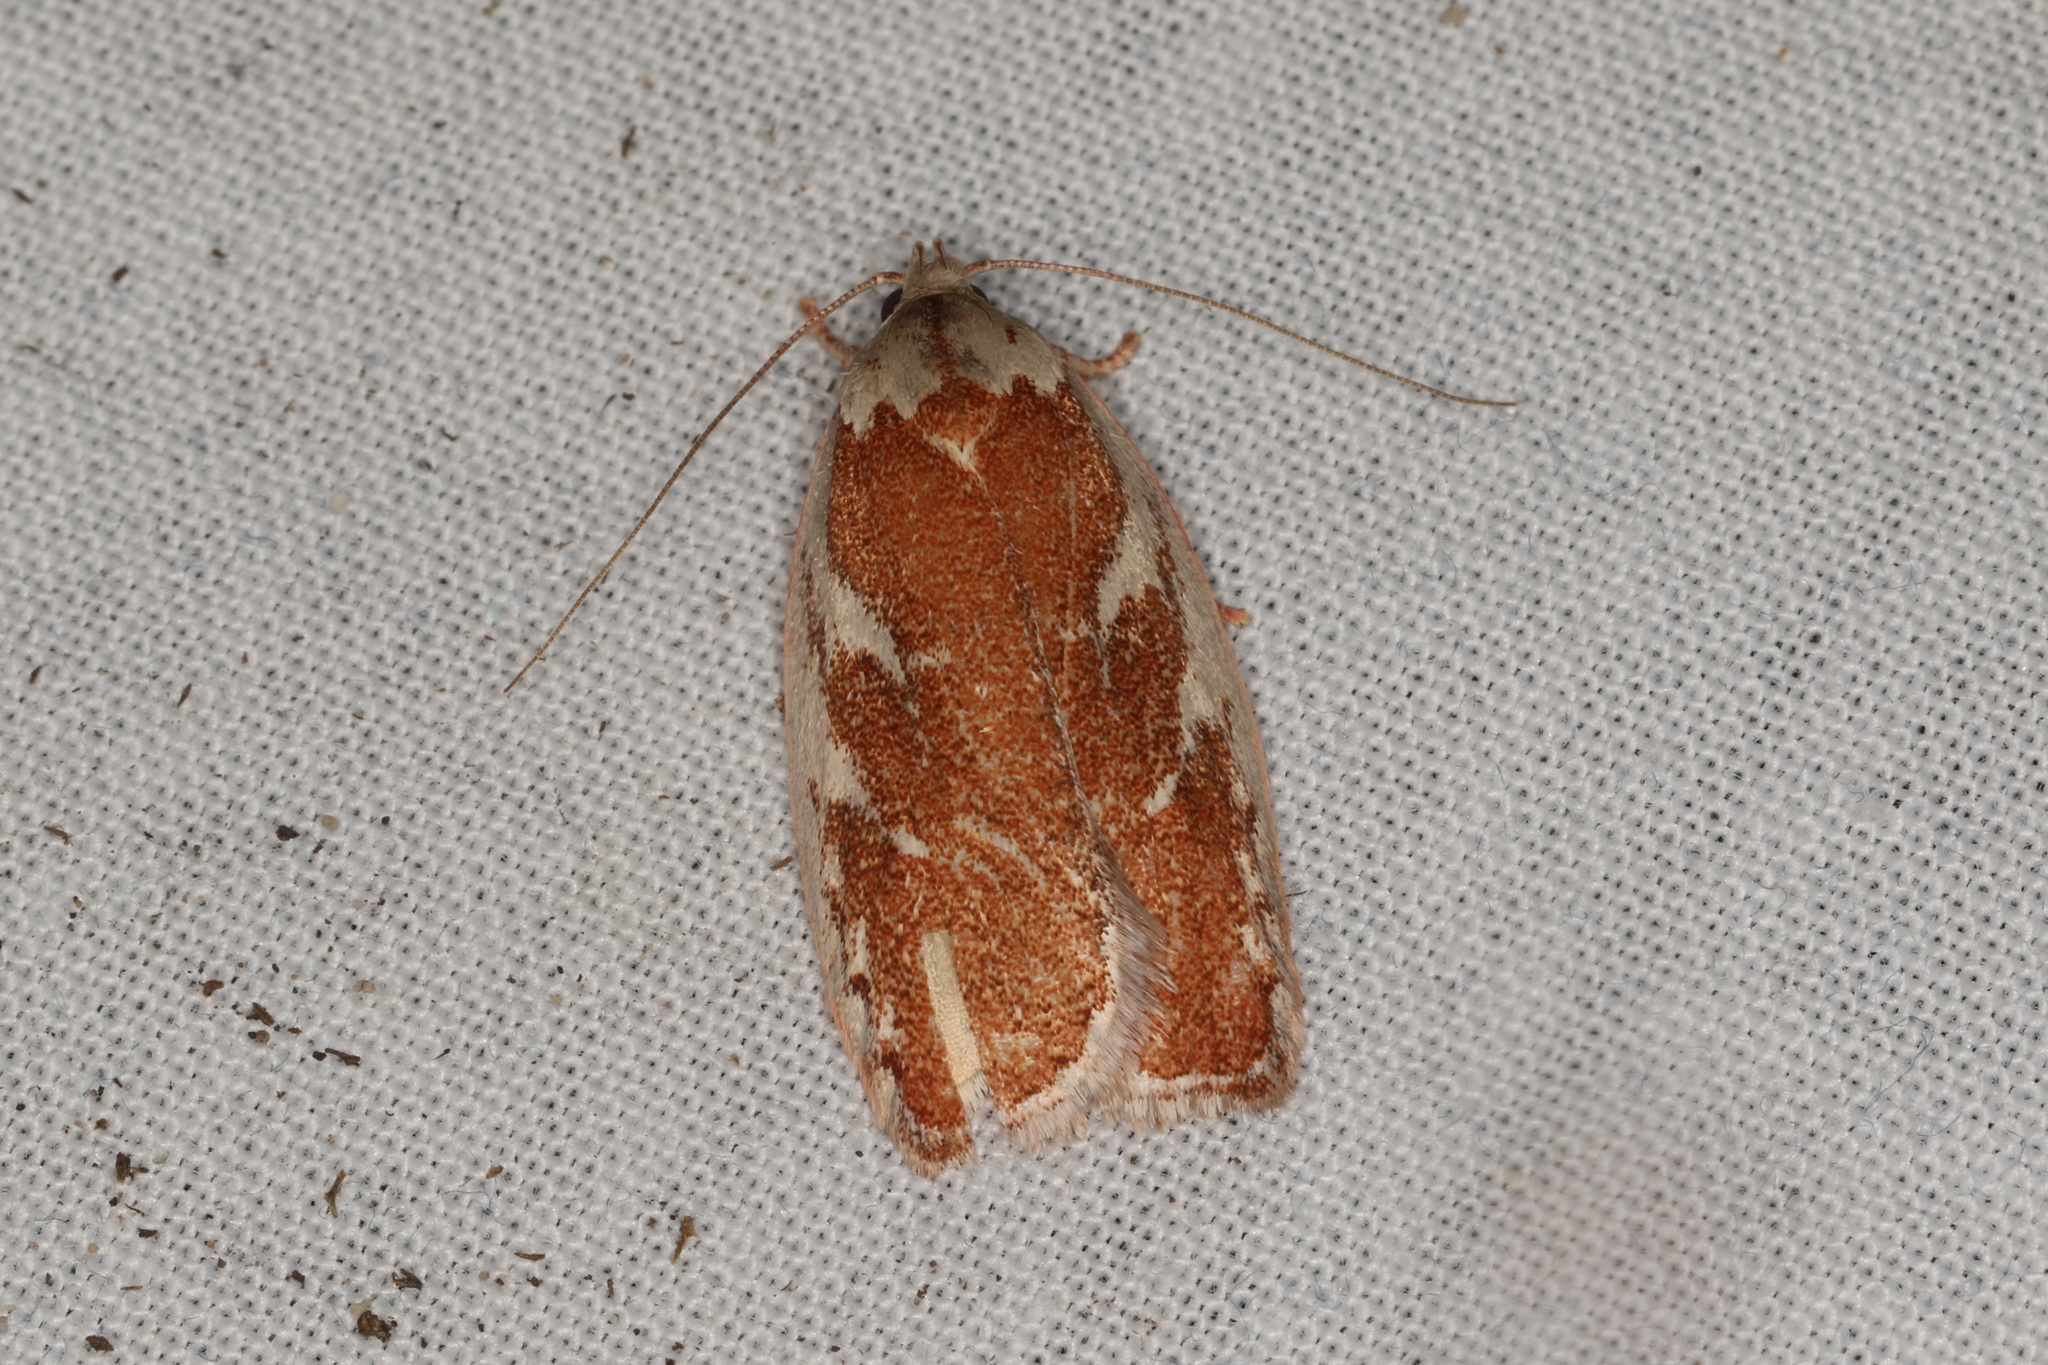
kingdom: Animalia
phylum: Arthropoda
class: Insecta
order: Lepidoptera
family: Oecophoridae
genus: Euchaetis
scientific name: Euchaetis rhizobola
